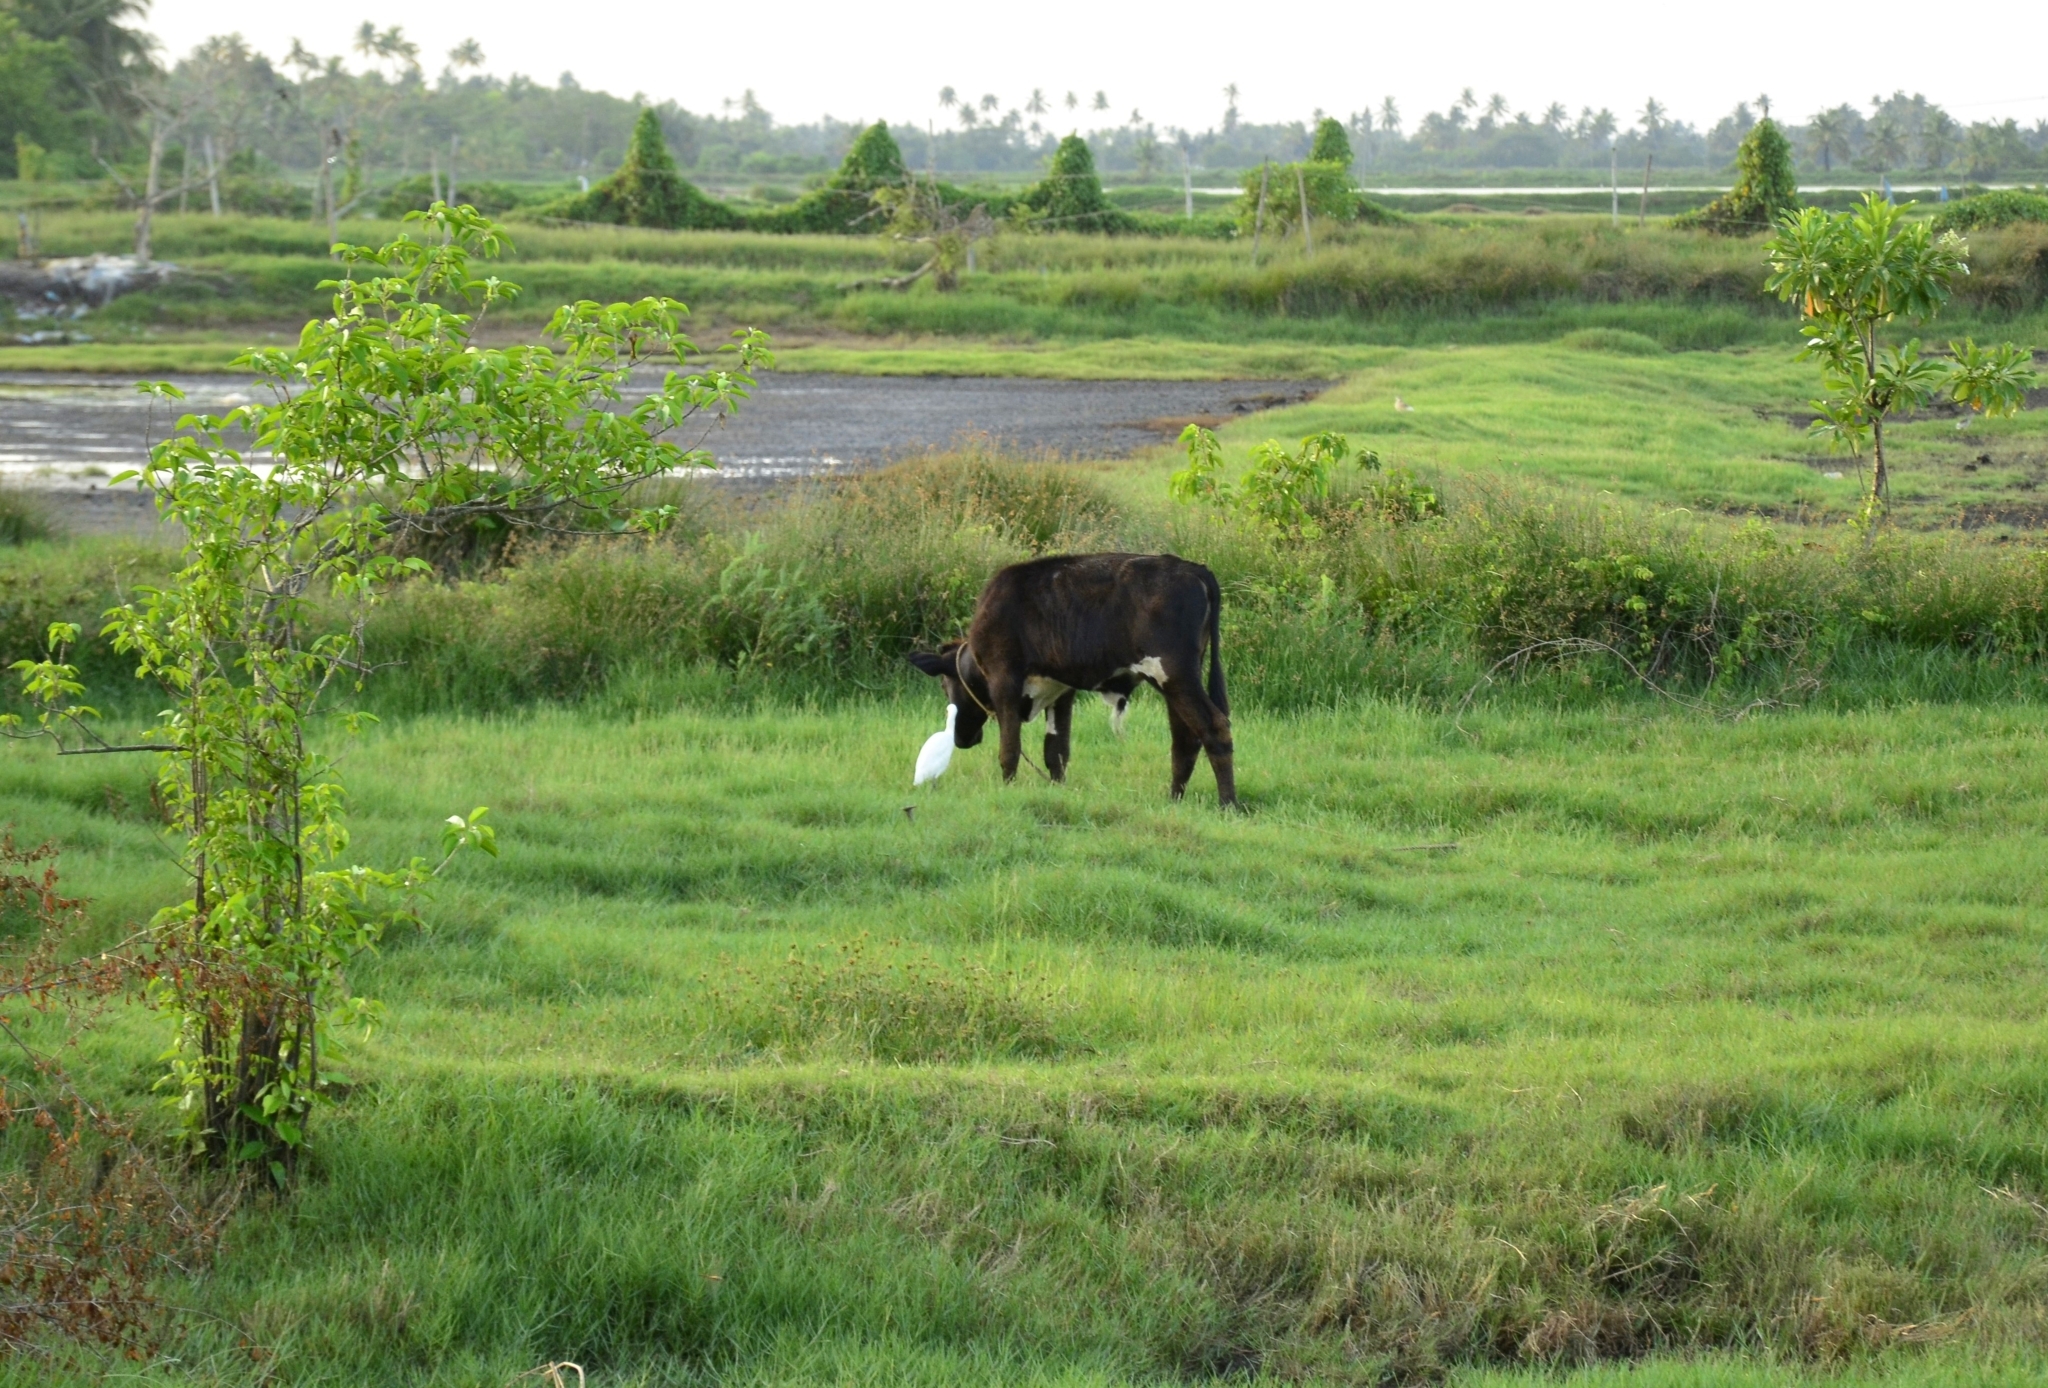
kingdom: Animalia
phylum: Chordata
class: Aves
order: Pelecaniformes
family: Ardeidae
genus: Bubulcus
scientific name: Bubulcus coromandus
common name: Eastern cattle egret
